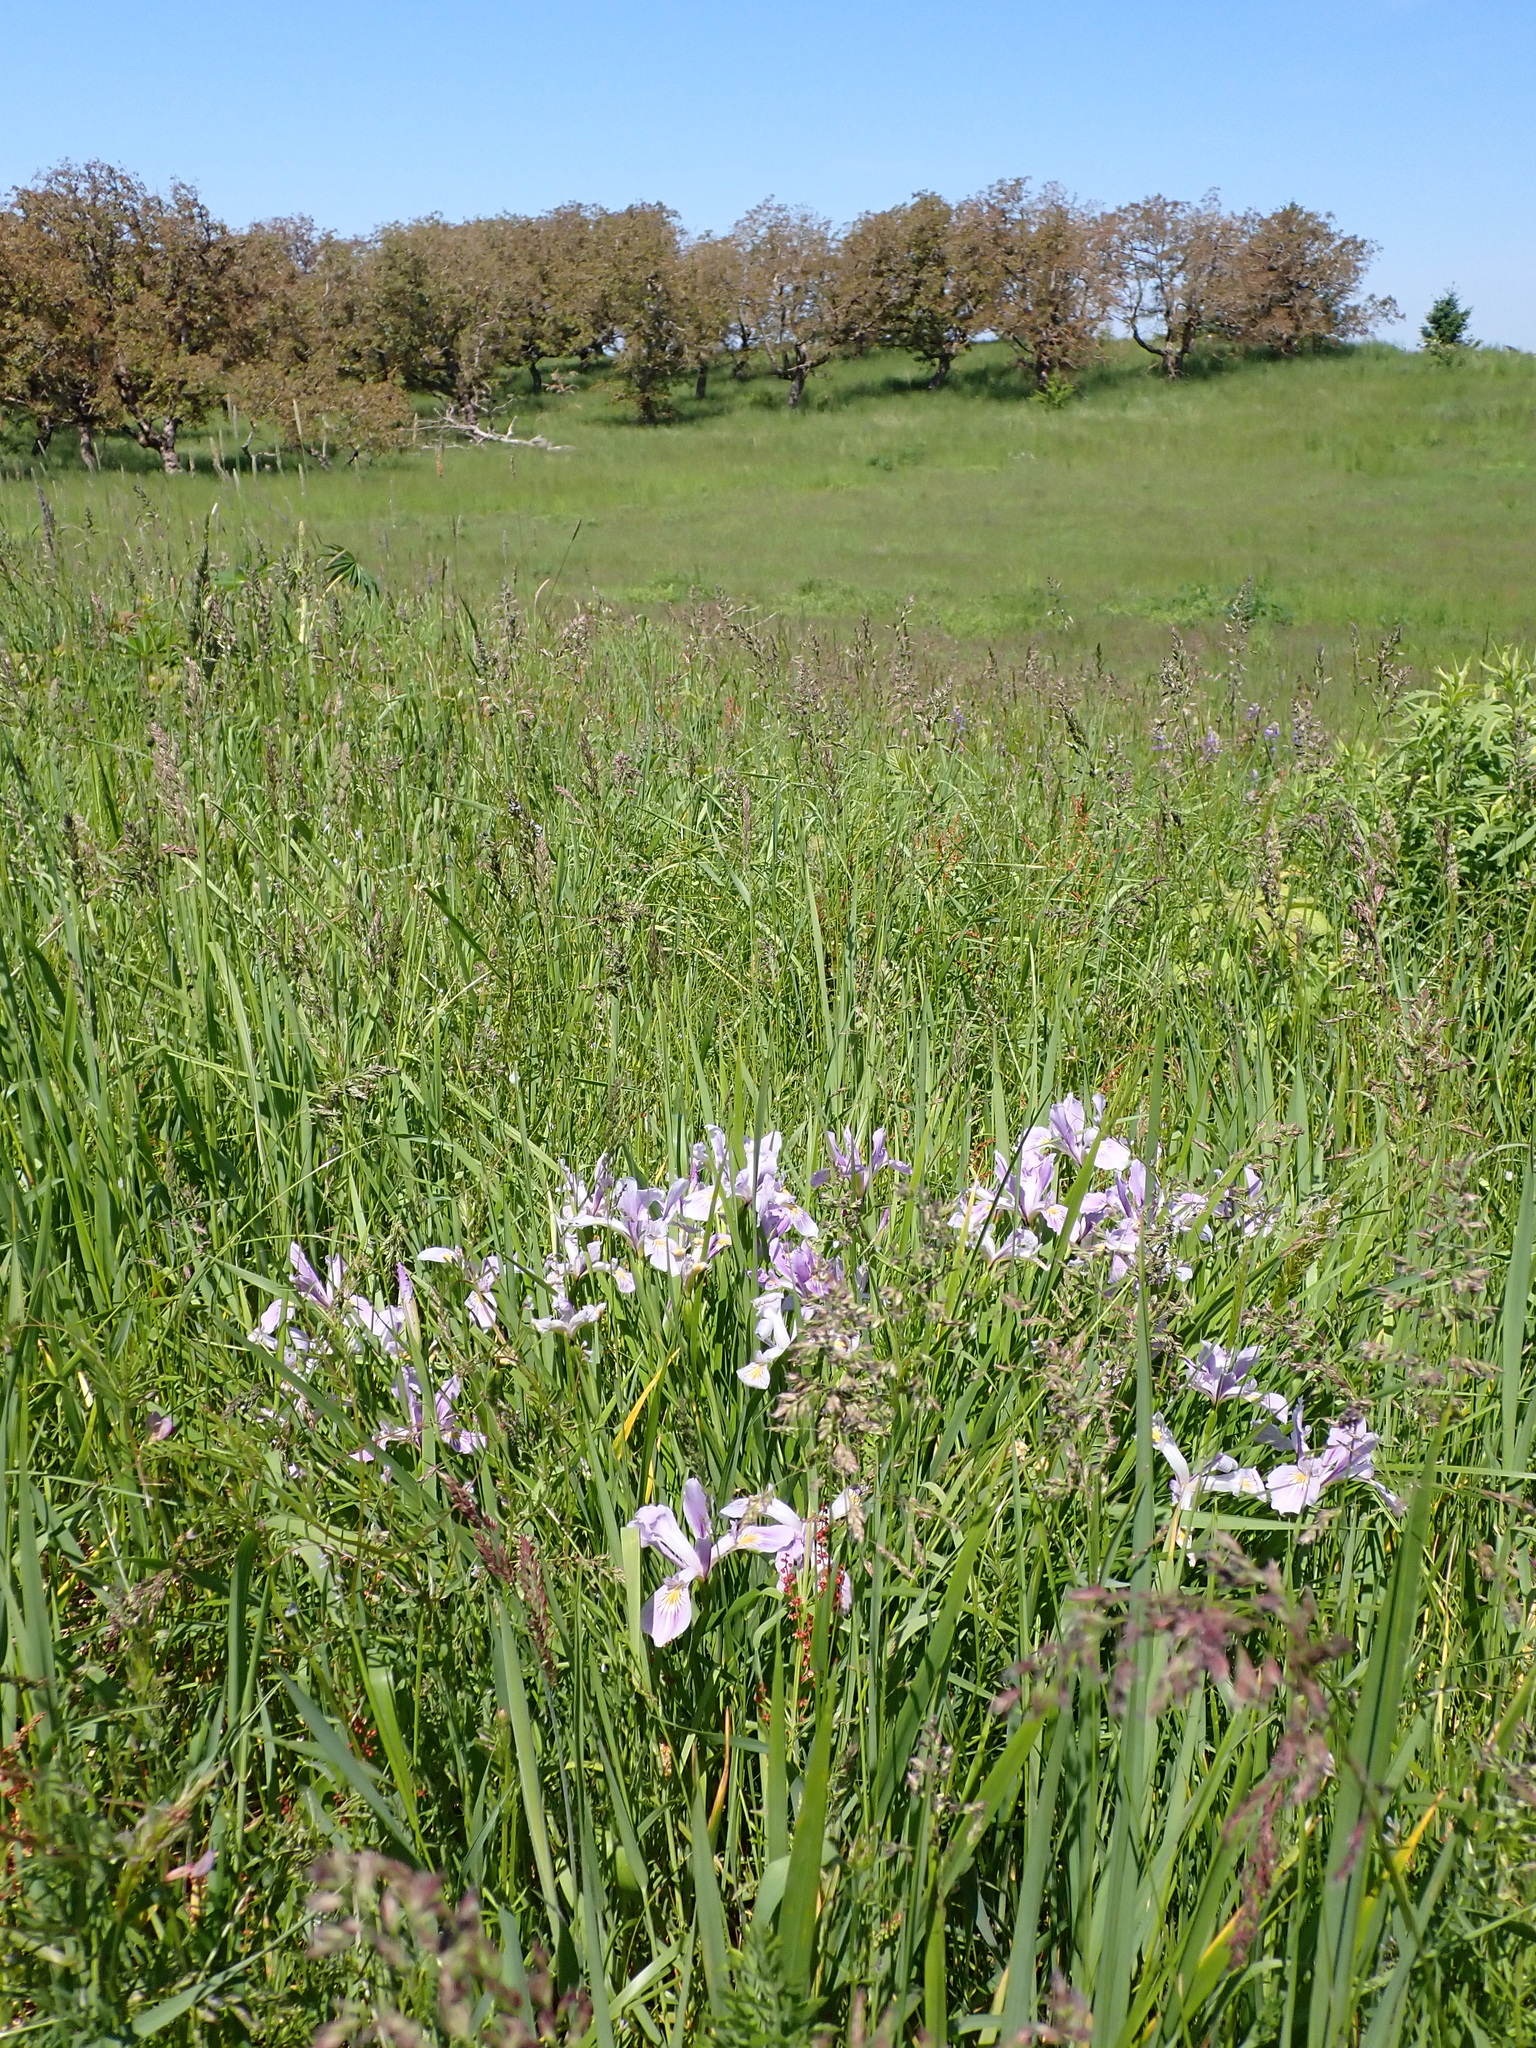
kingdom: Plantae
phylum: Tracheophyta
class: Liliopsida
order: Asparagales
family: Iridaceae
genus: Iris
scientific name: Iris tenax
